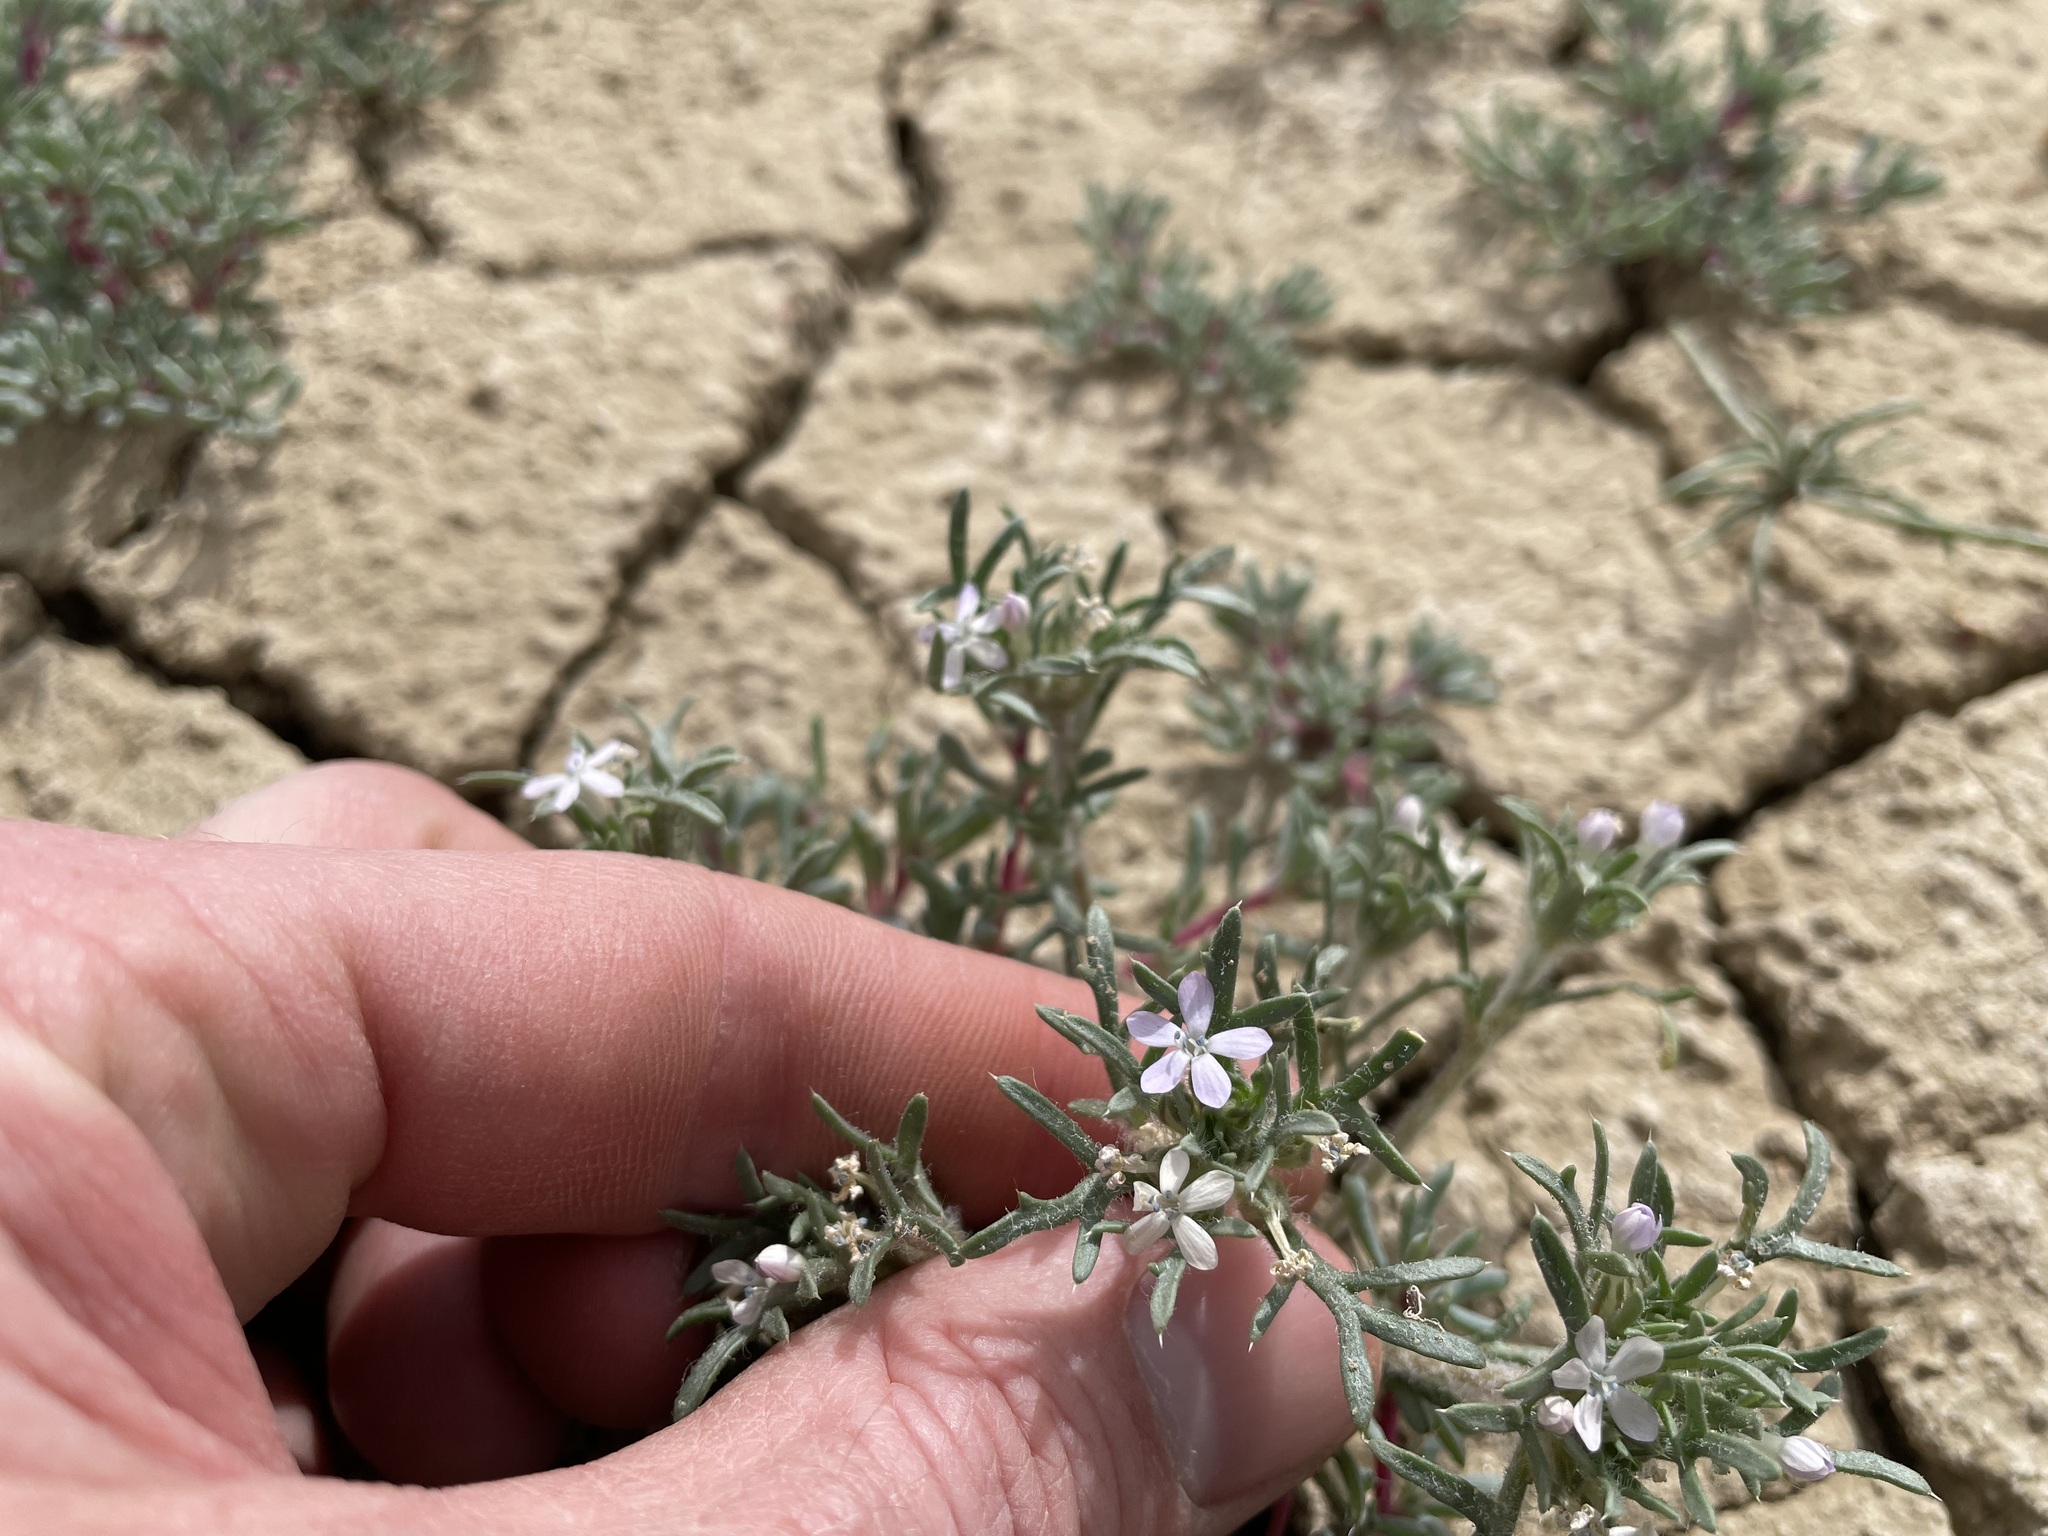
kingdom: Plantae
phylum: Tracheophyta
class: Magnoliopsida
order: Ericales
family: Polemoniaceae
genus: Ipomopsis
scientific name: Ipomopsis pumila
